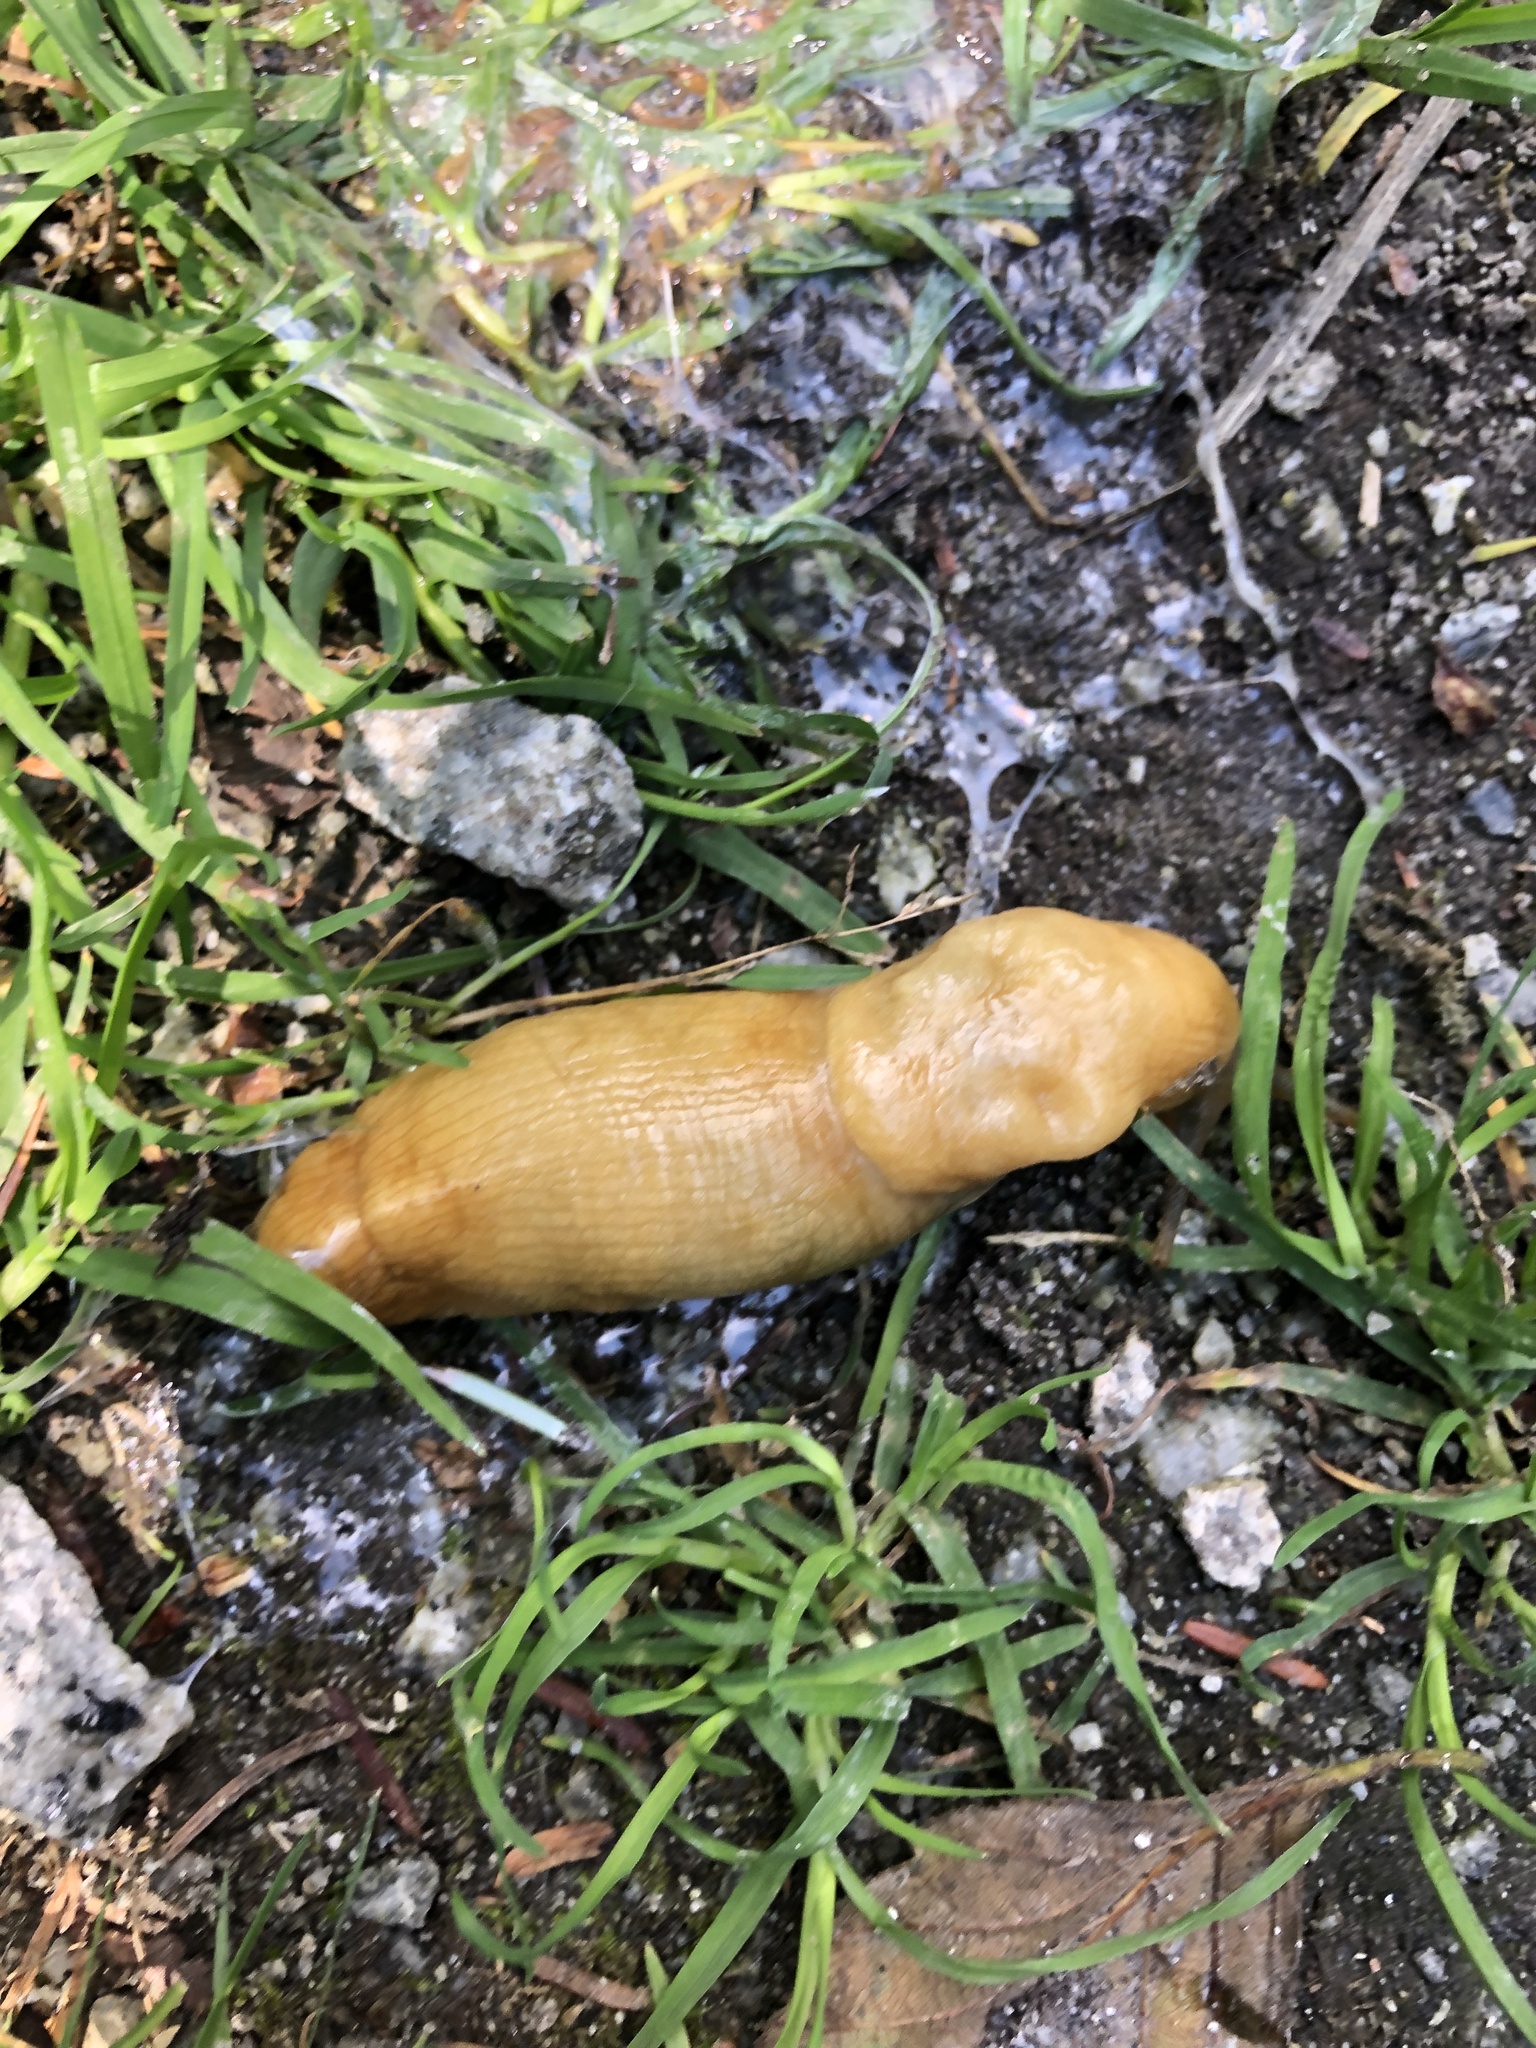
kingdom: Animalia
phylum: Mollusca
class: Gastropoda
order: Stylommatophora
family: Ariolimacidae
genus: Ariolimax
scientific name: Ariolimax columbianus
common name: Pacific banana slug
